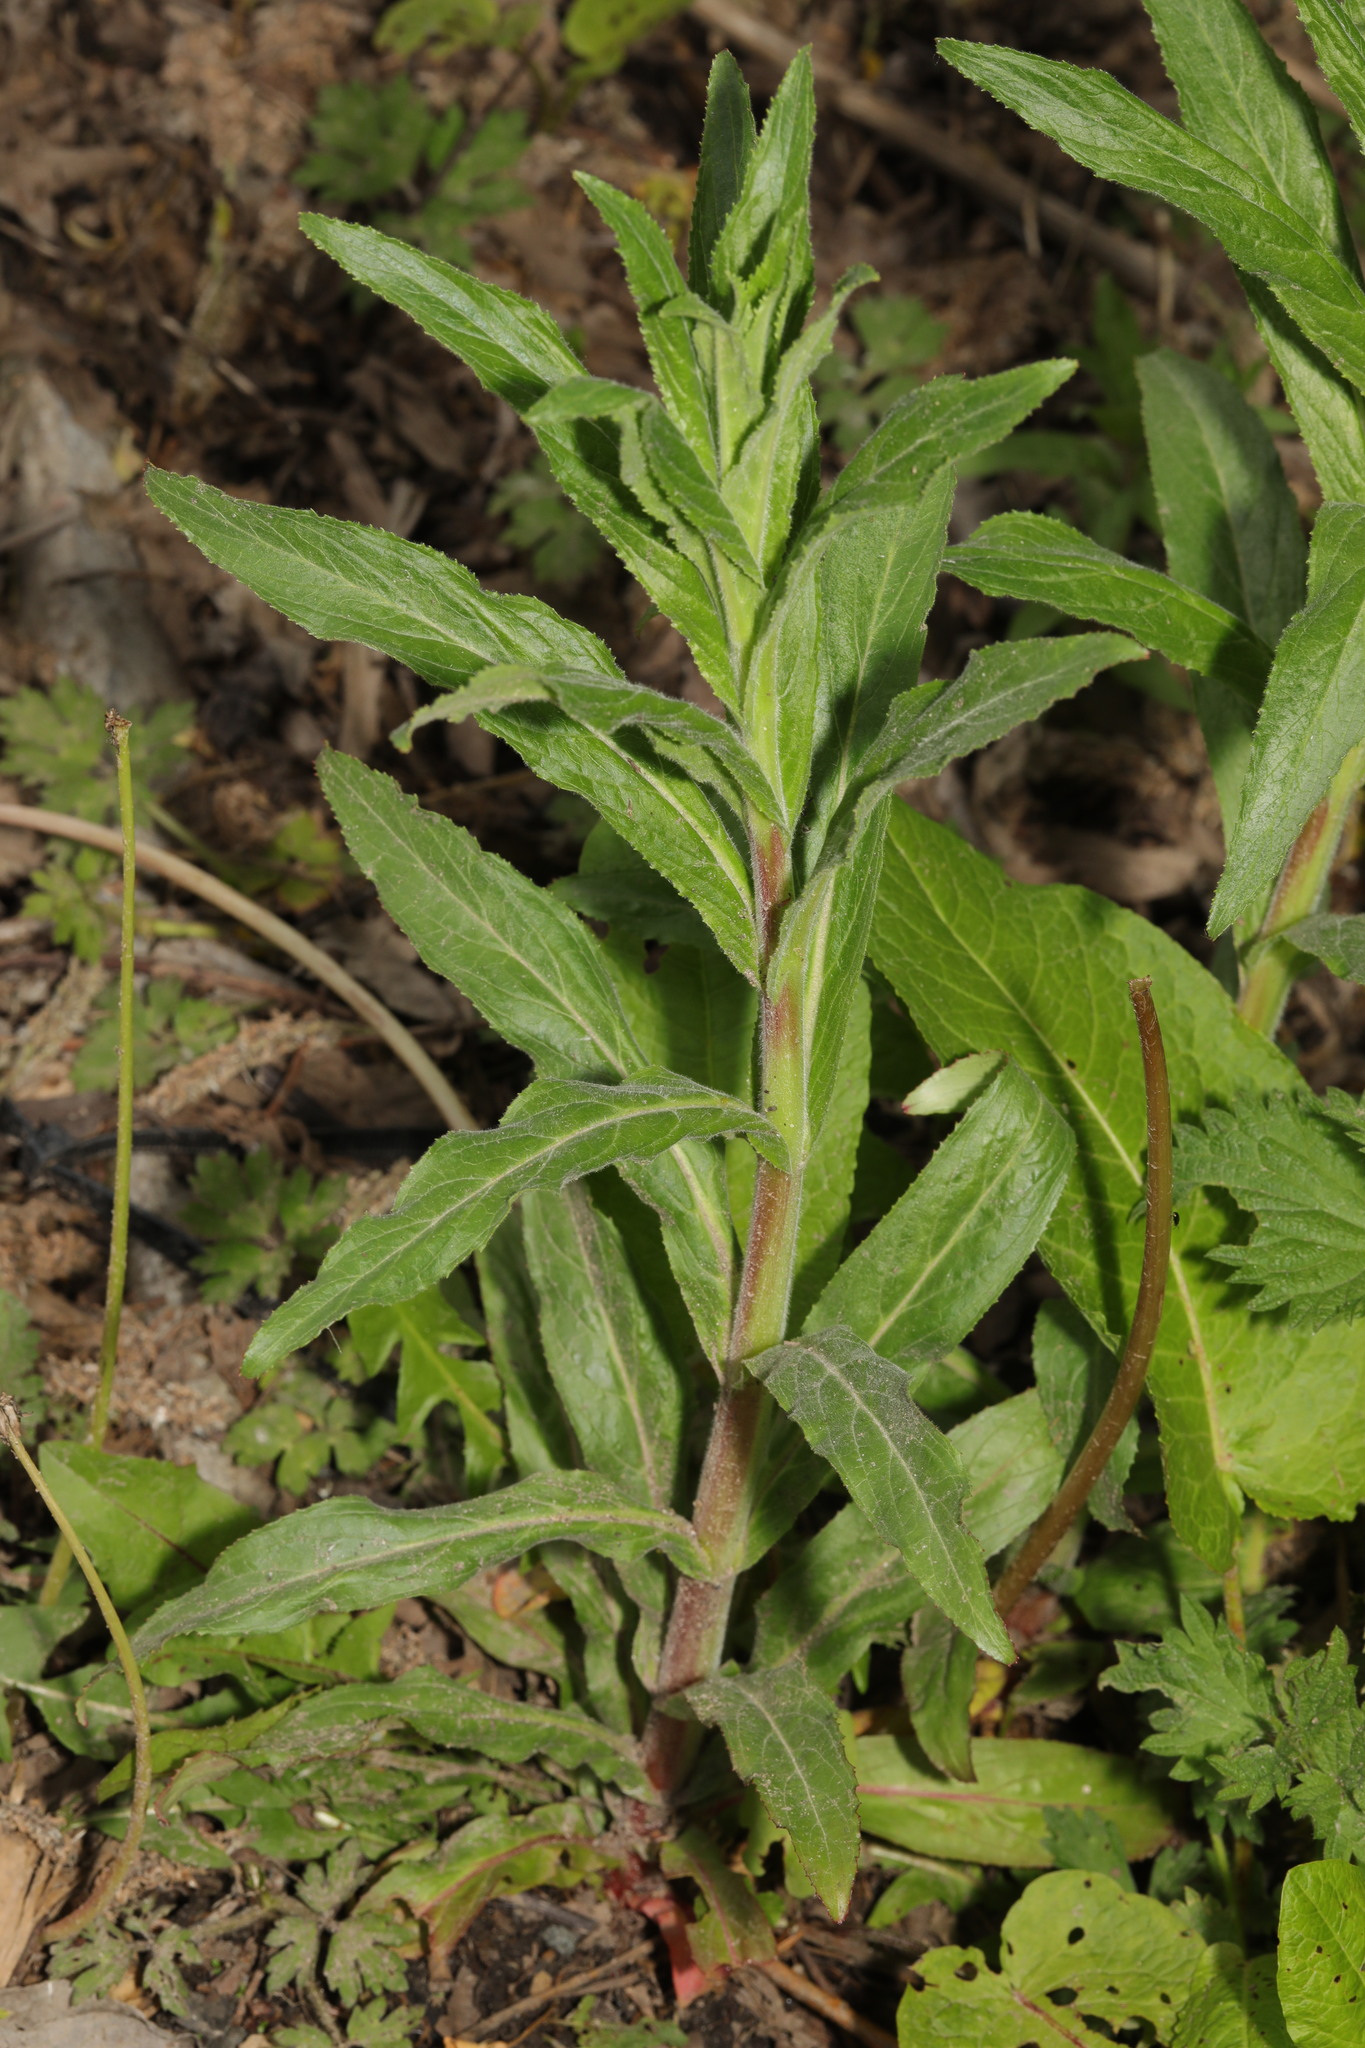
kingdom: Plantae
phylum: Tracheophyta
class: Magnoliopsida
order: Myrtales
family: Onagraceae
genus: Epilobium
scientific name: Epilobium hirsutum
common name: Great willowherb
